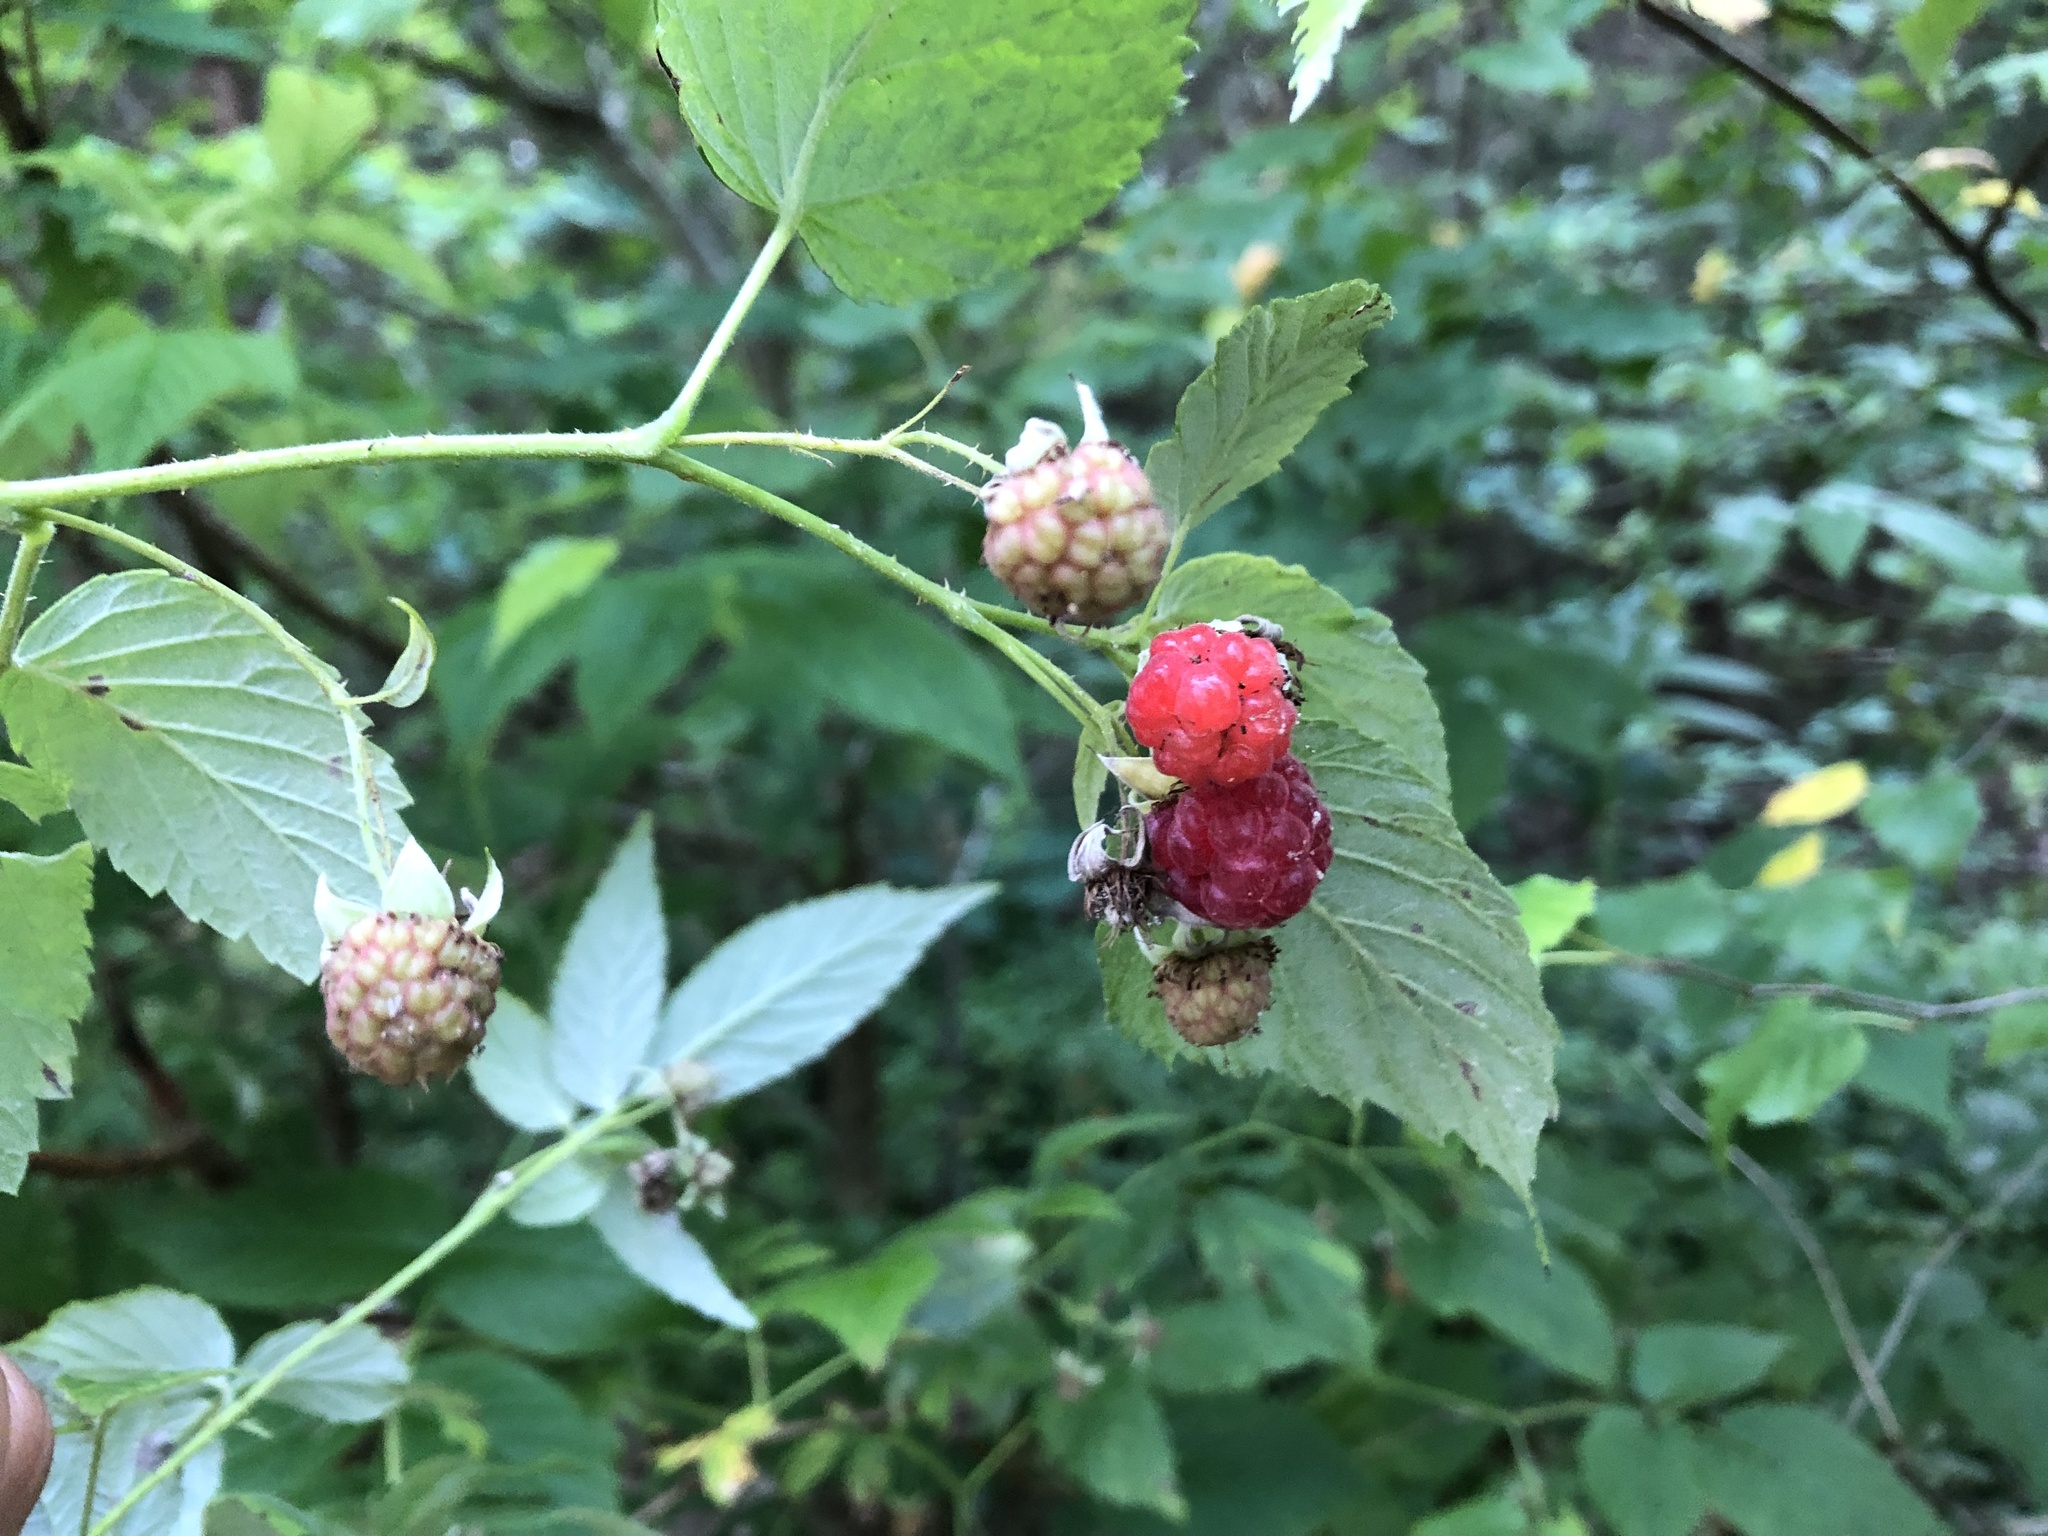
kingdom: Plantae
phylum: Tracheophyta
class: Magnoliopsida
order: Rosales
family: Rosaceae
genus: Rubus
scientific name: Rubus idaeus
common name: Raspberry
